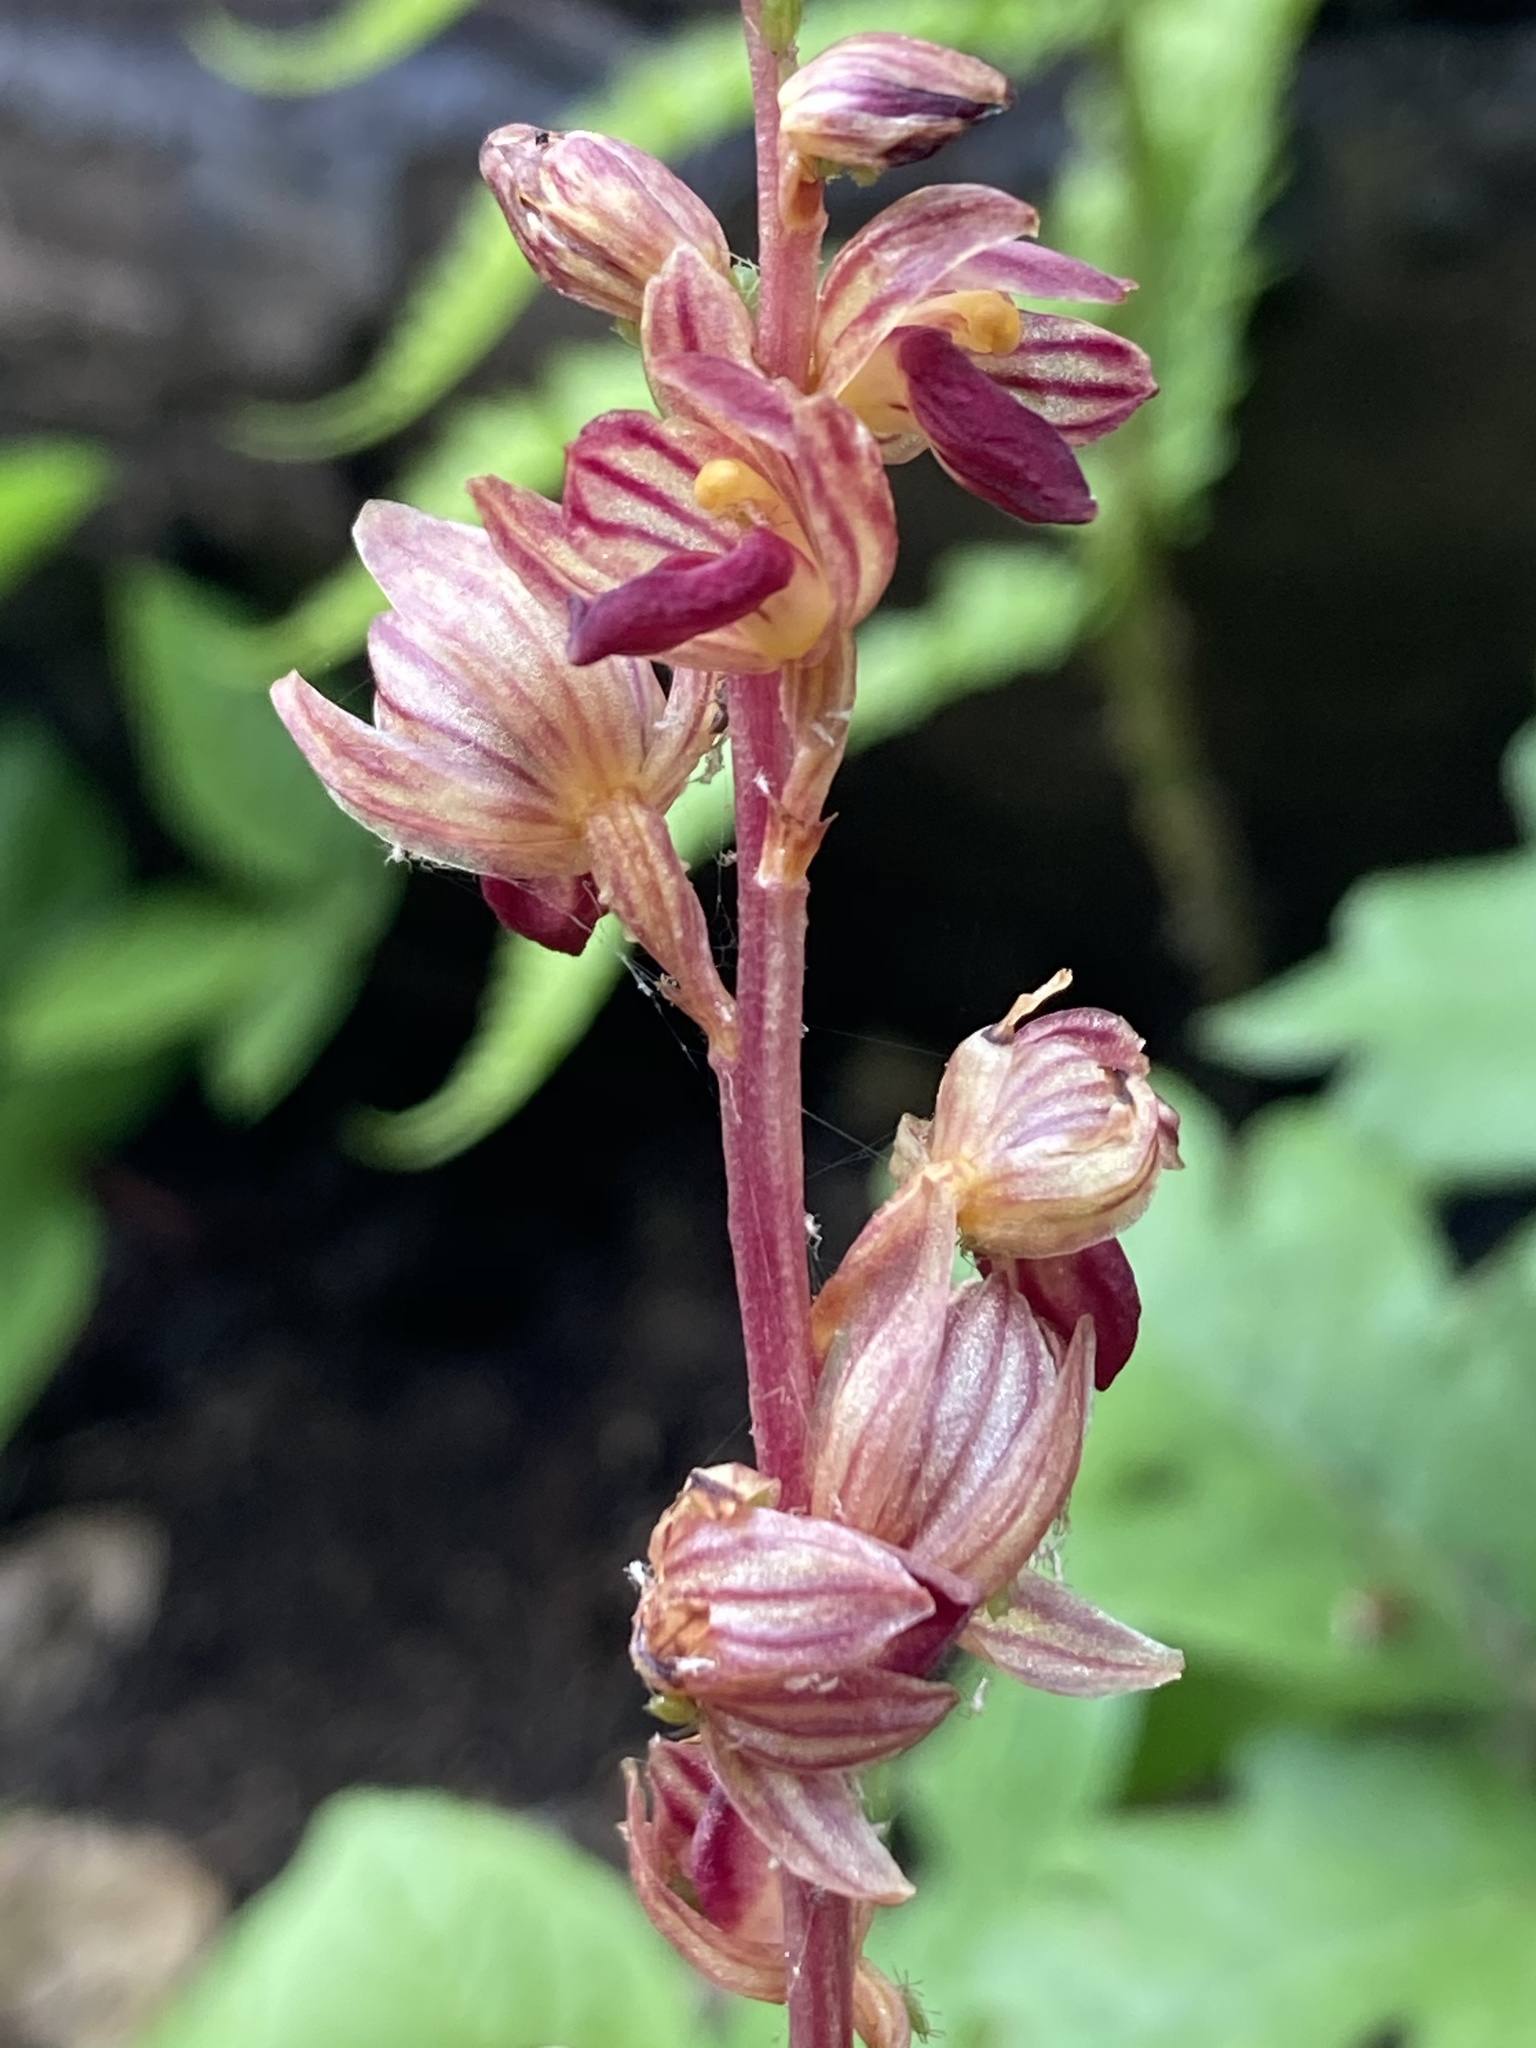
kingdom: Plantae
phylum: Tracheophyta
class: Liliopsida
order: Asparagales
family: Orchidaceae
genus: Corallorhiza
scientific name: Corallorhiza striata
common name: Hooded coralroot
